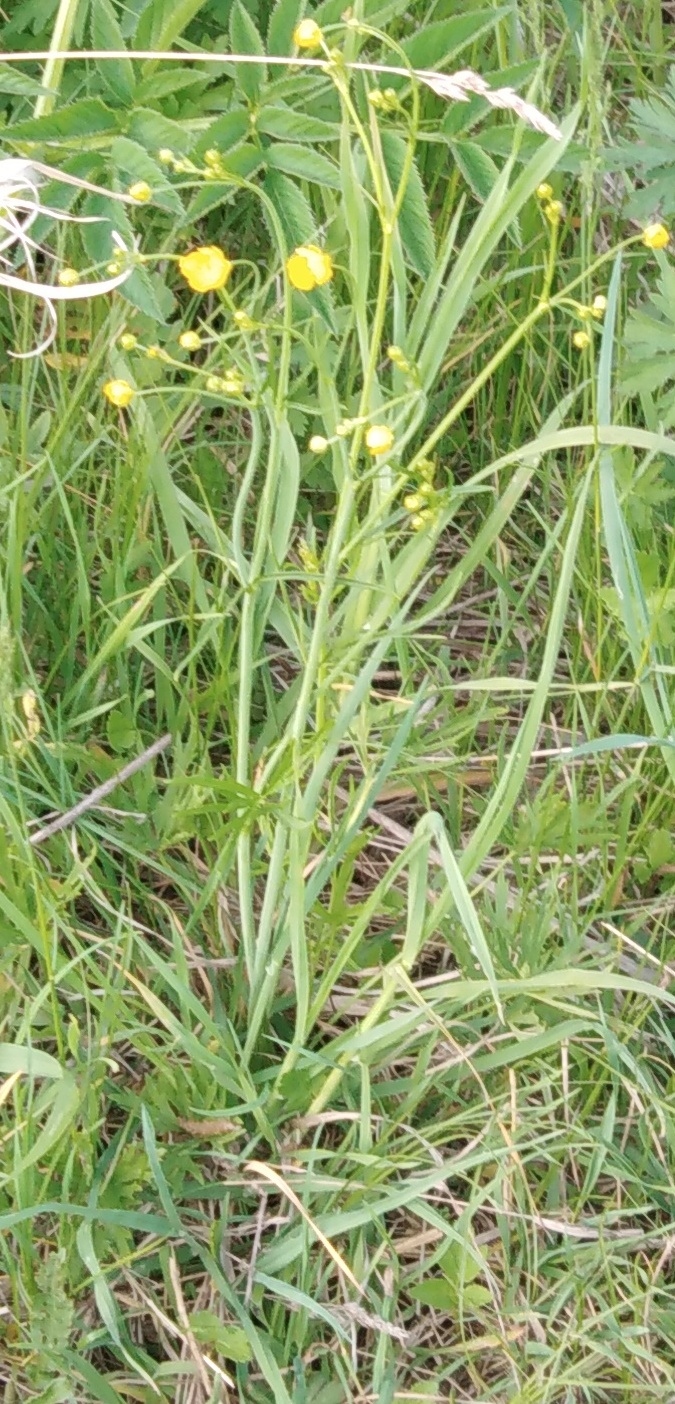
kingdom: Plantae
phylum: Tracheophyta
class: Magnoliopsida
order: Ranunculales
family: Ranunculaceae
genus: Ranunculus
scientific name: Ranunculus acris
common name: Meadow buttercup
